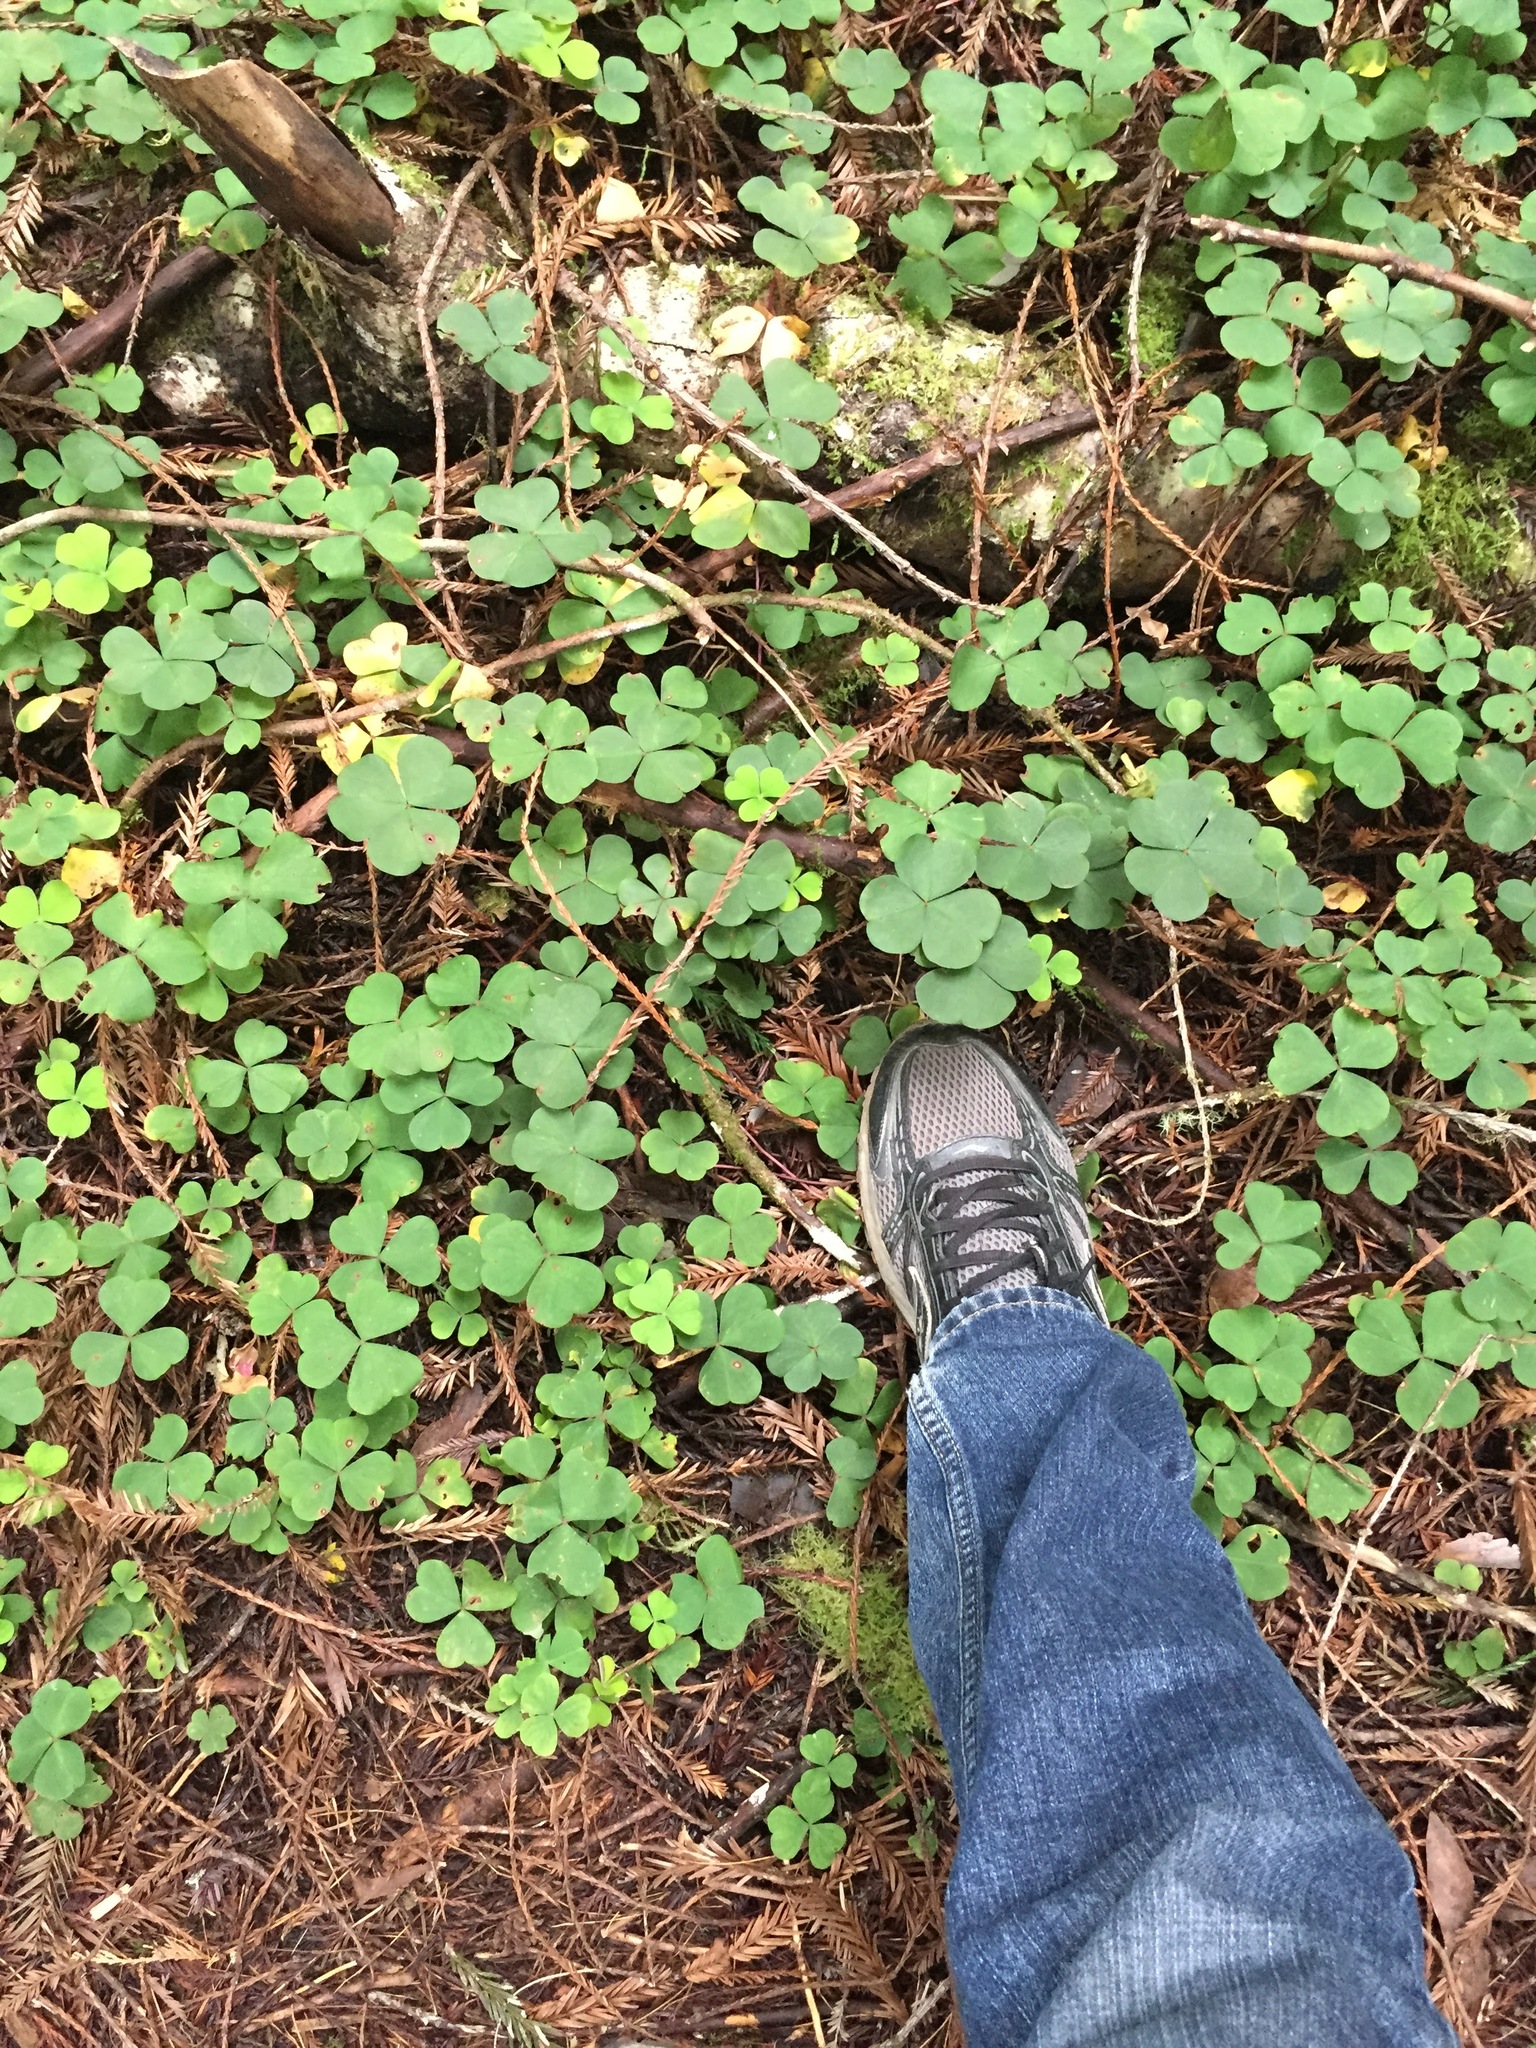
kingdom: Plantae
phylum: Tracheophyta
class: Magnoliopsida
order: Oxalidales
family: Oxalidaceae
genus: Oxalis
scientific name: Oxalis oregana
